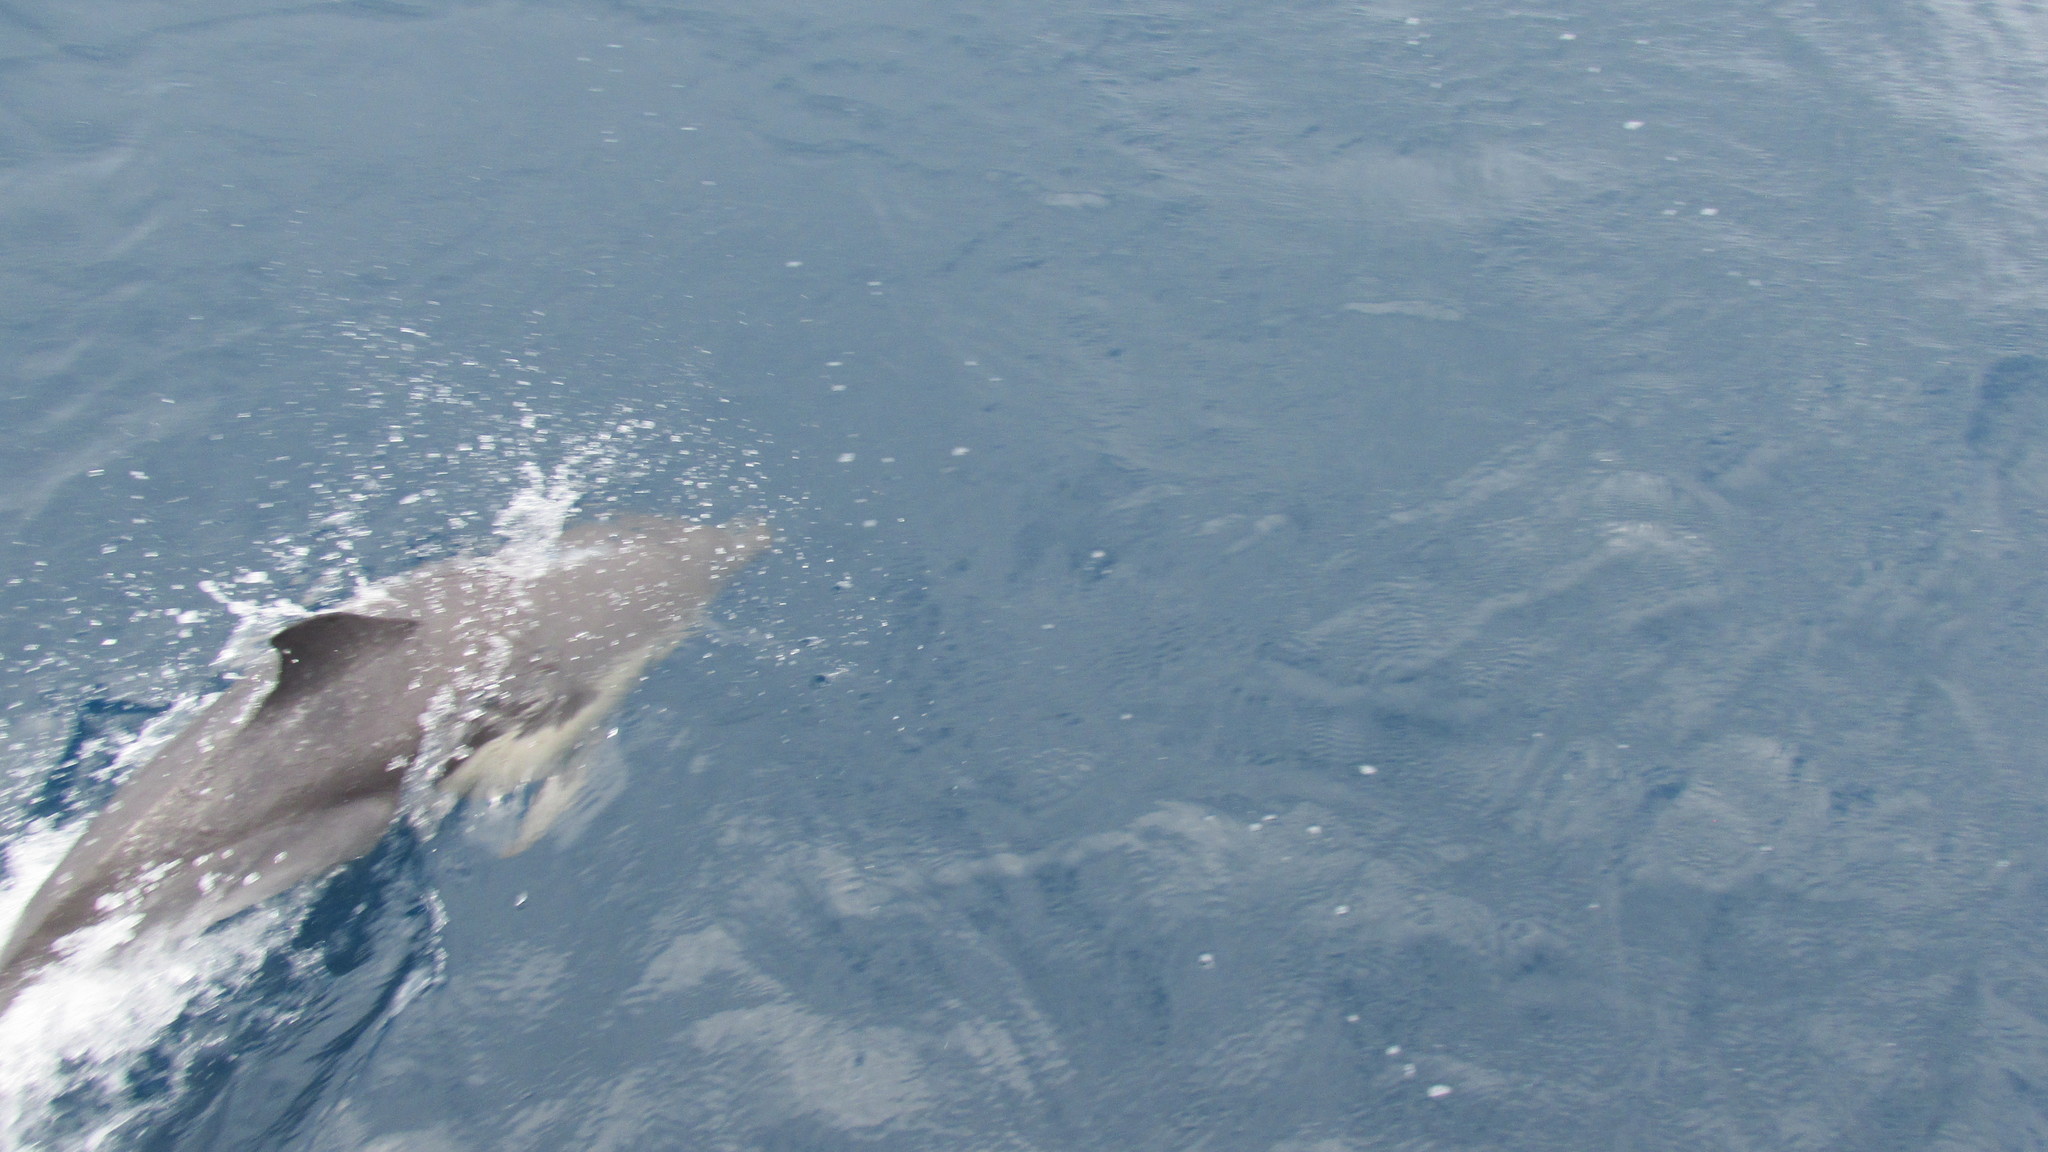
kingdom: Animalia
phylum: Chordata
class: Mammalia
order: Cetacea
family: Delphinidae
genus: Delphinus
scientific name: Delphinus delphis
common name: Common dolphin
